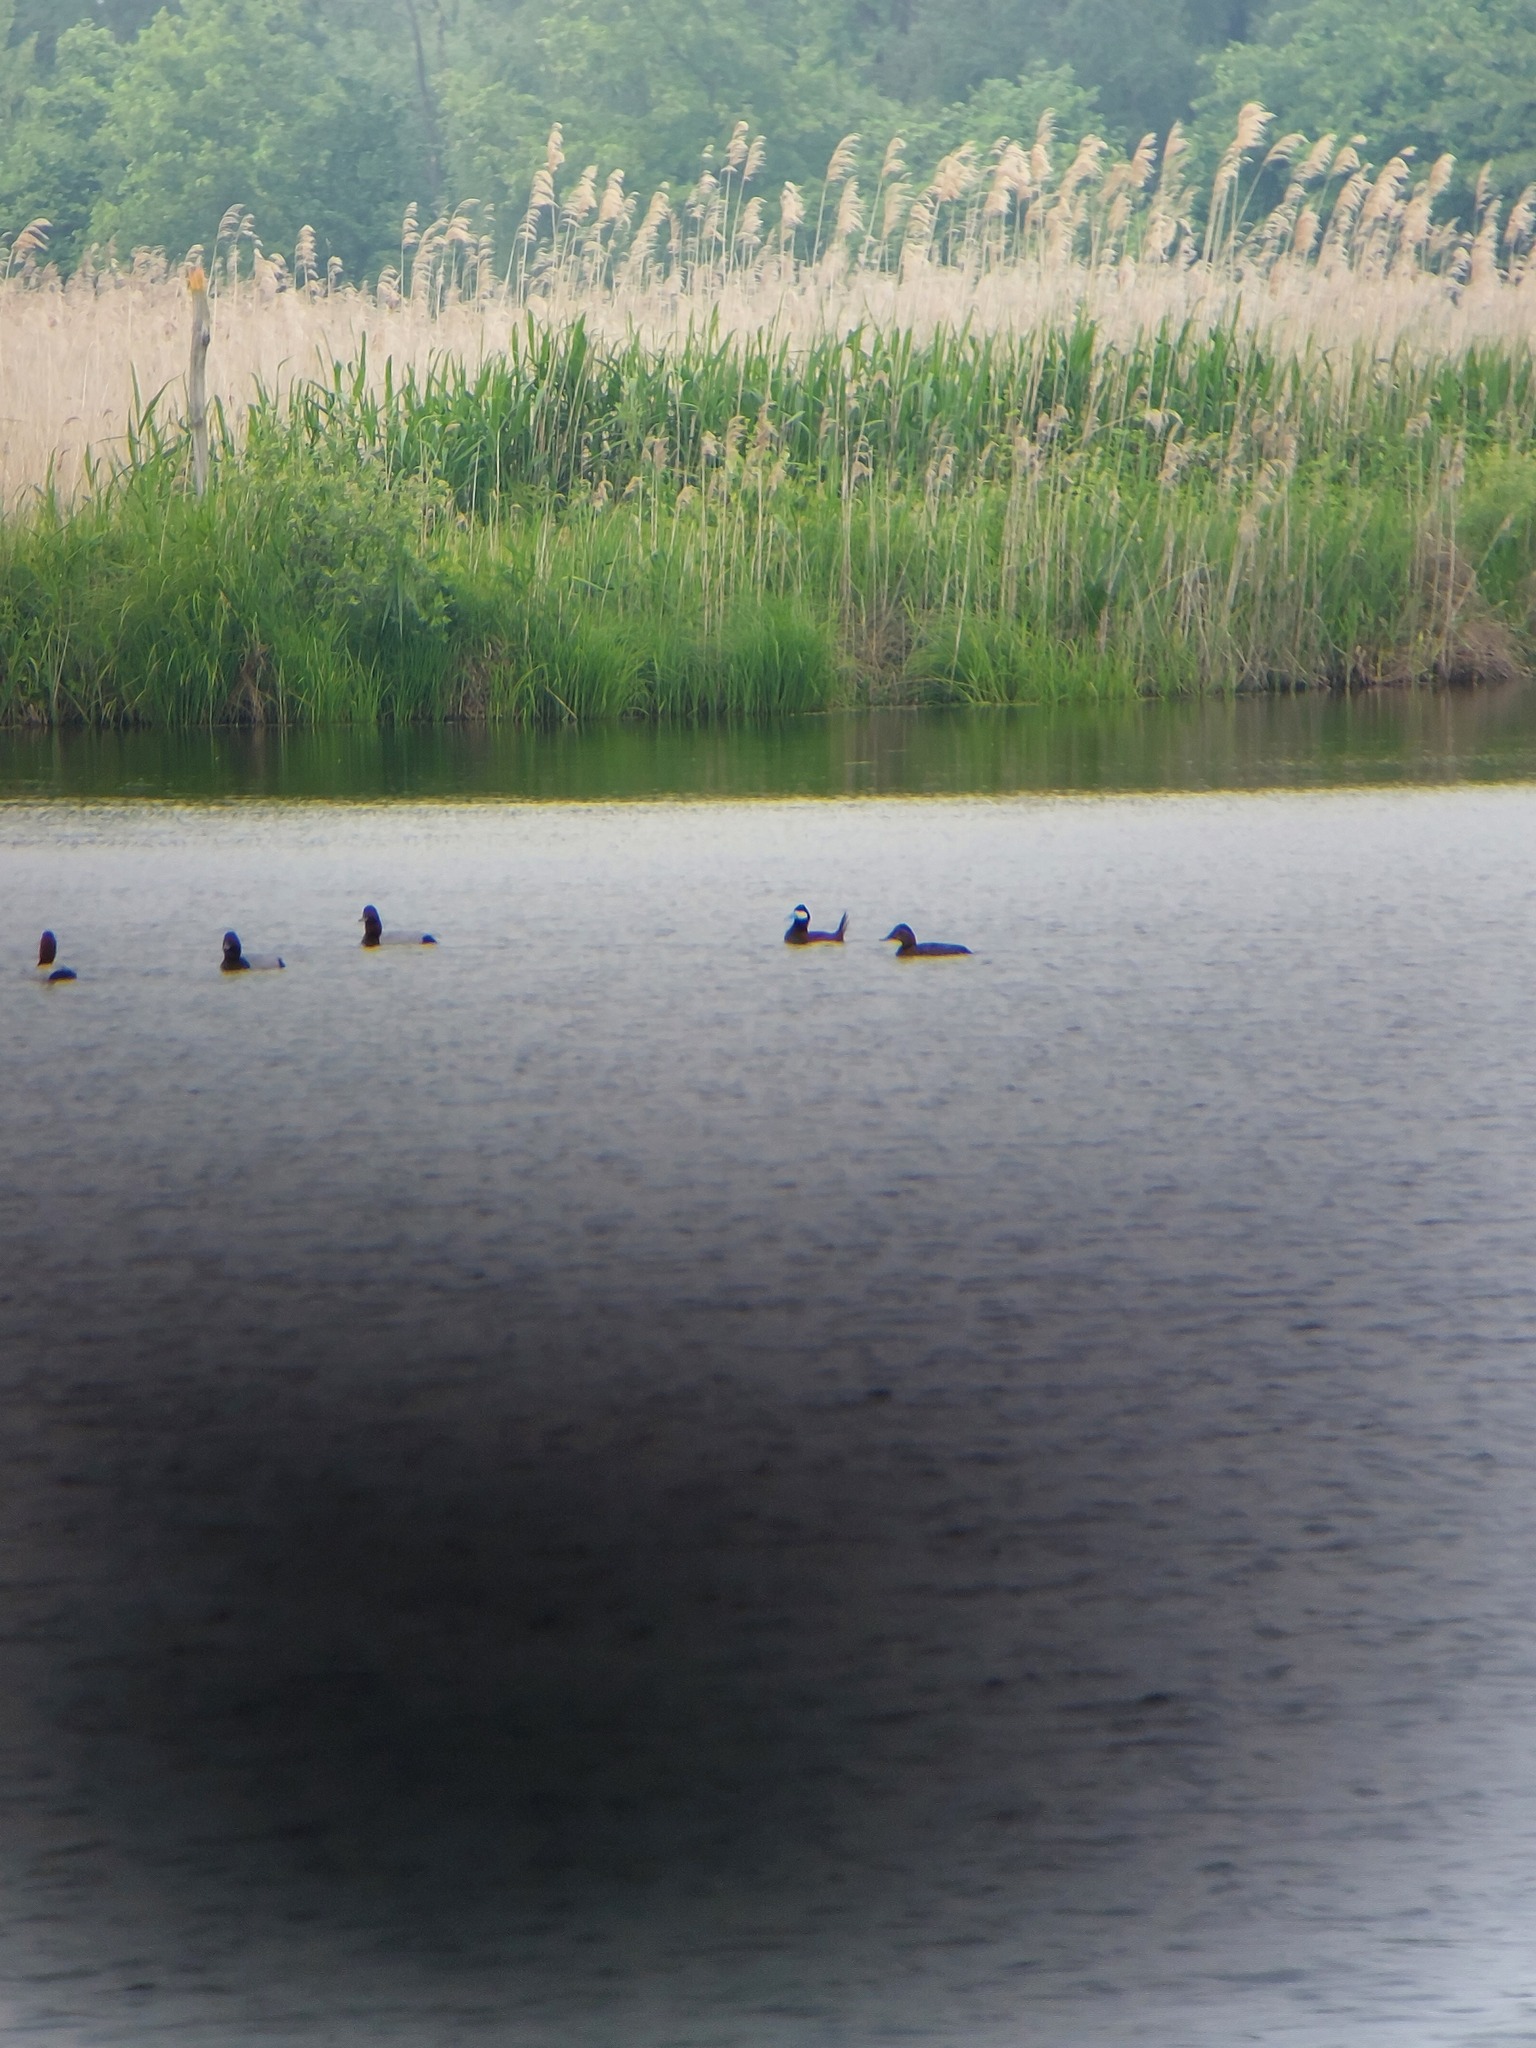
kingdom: Animalia
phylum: Chordata
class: Aves
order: Anseriformes
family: Anatidae
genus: Oxyura
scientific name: Oxyura jamaicensis
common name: Ruddy duck
